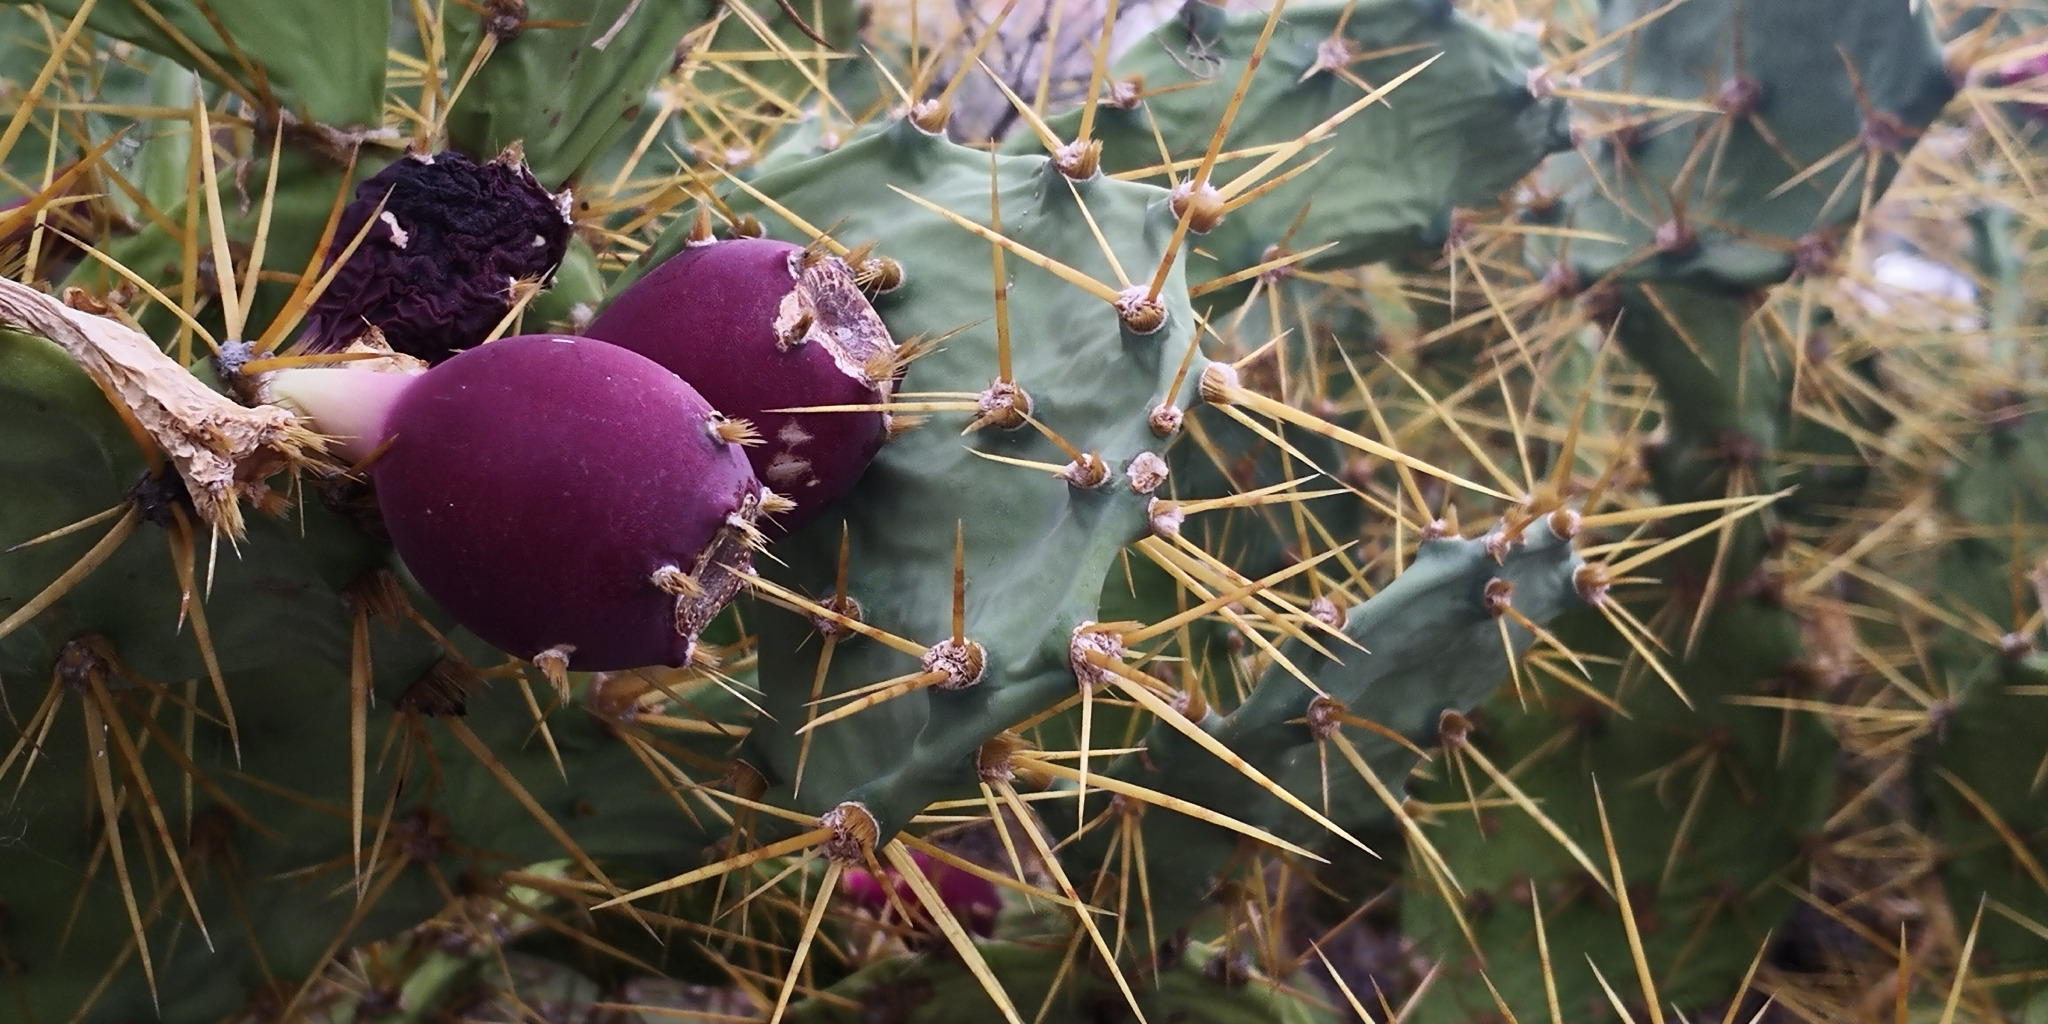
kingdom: Plantae
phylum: Tracheophyta
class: Magnoliopsida
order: Caryophyllales
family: Cactaceae
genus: Opuntia
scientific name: Opuntia stricta
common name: Erect pricklypear
